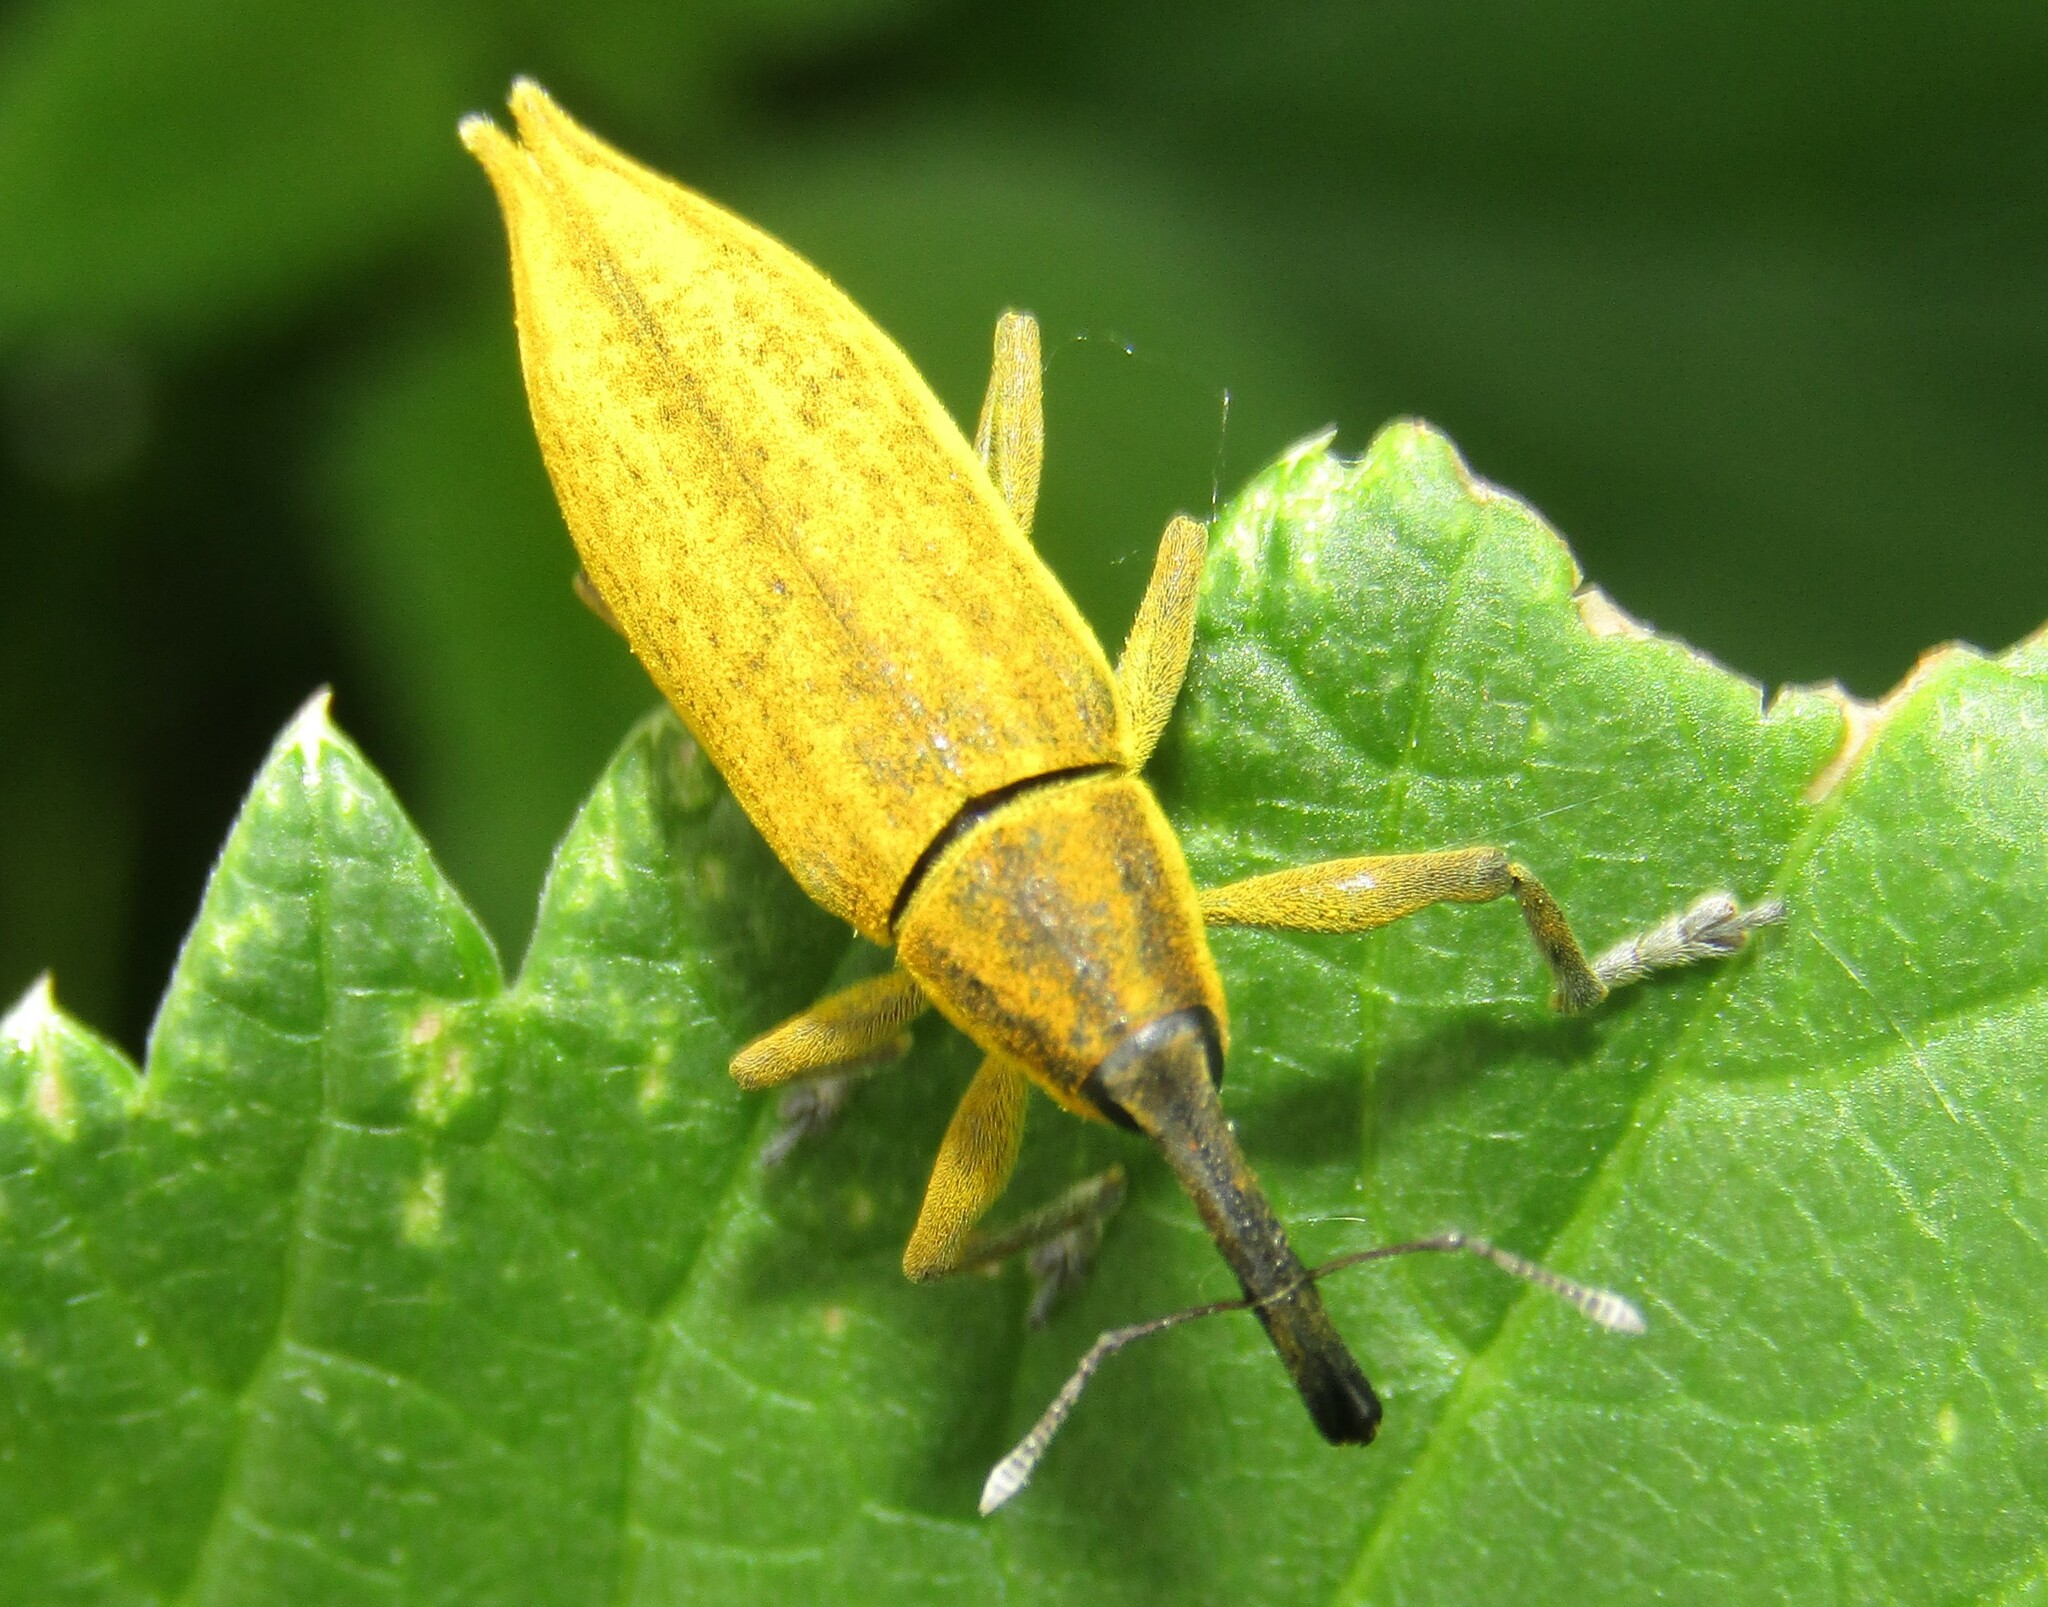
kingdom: Animalia
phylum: Arthropoda
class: Insecta
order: Coleoptera
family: Curculionidae
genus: Lixus
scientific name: Lixus iridis
